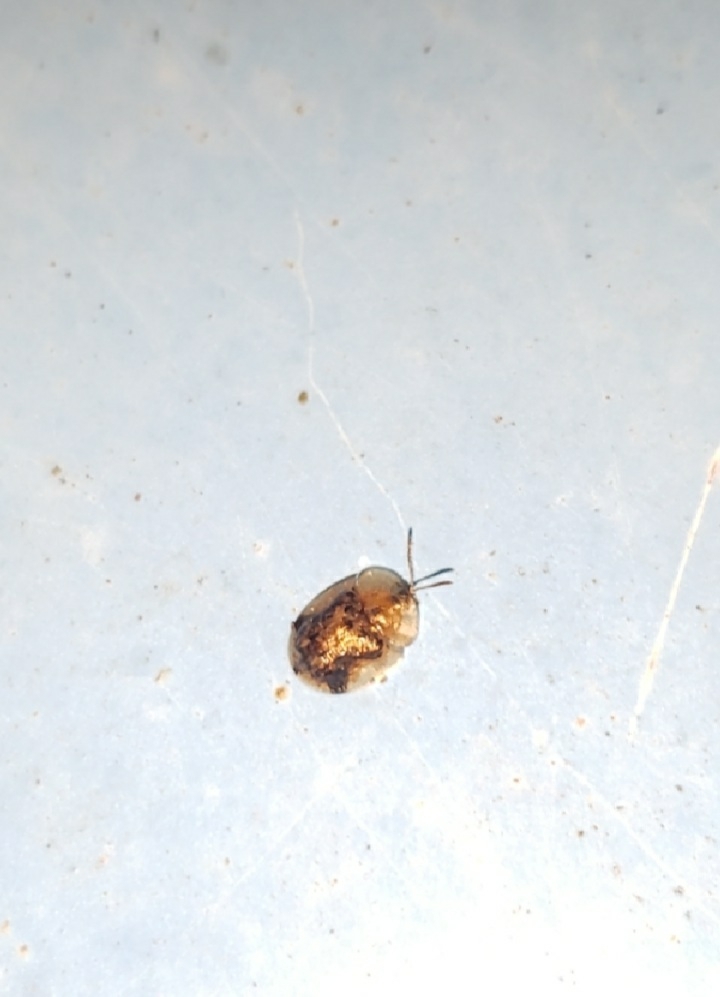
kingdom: Animalia
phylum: Arthropoda
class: Insecta
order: Coleoptera
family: Chrysomelidae
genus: Cassida
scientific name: Cassida piperata
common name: Small tortoise beetle
